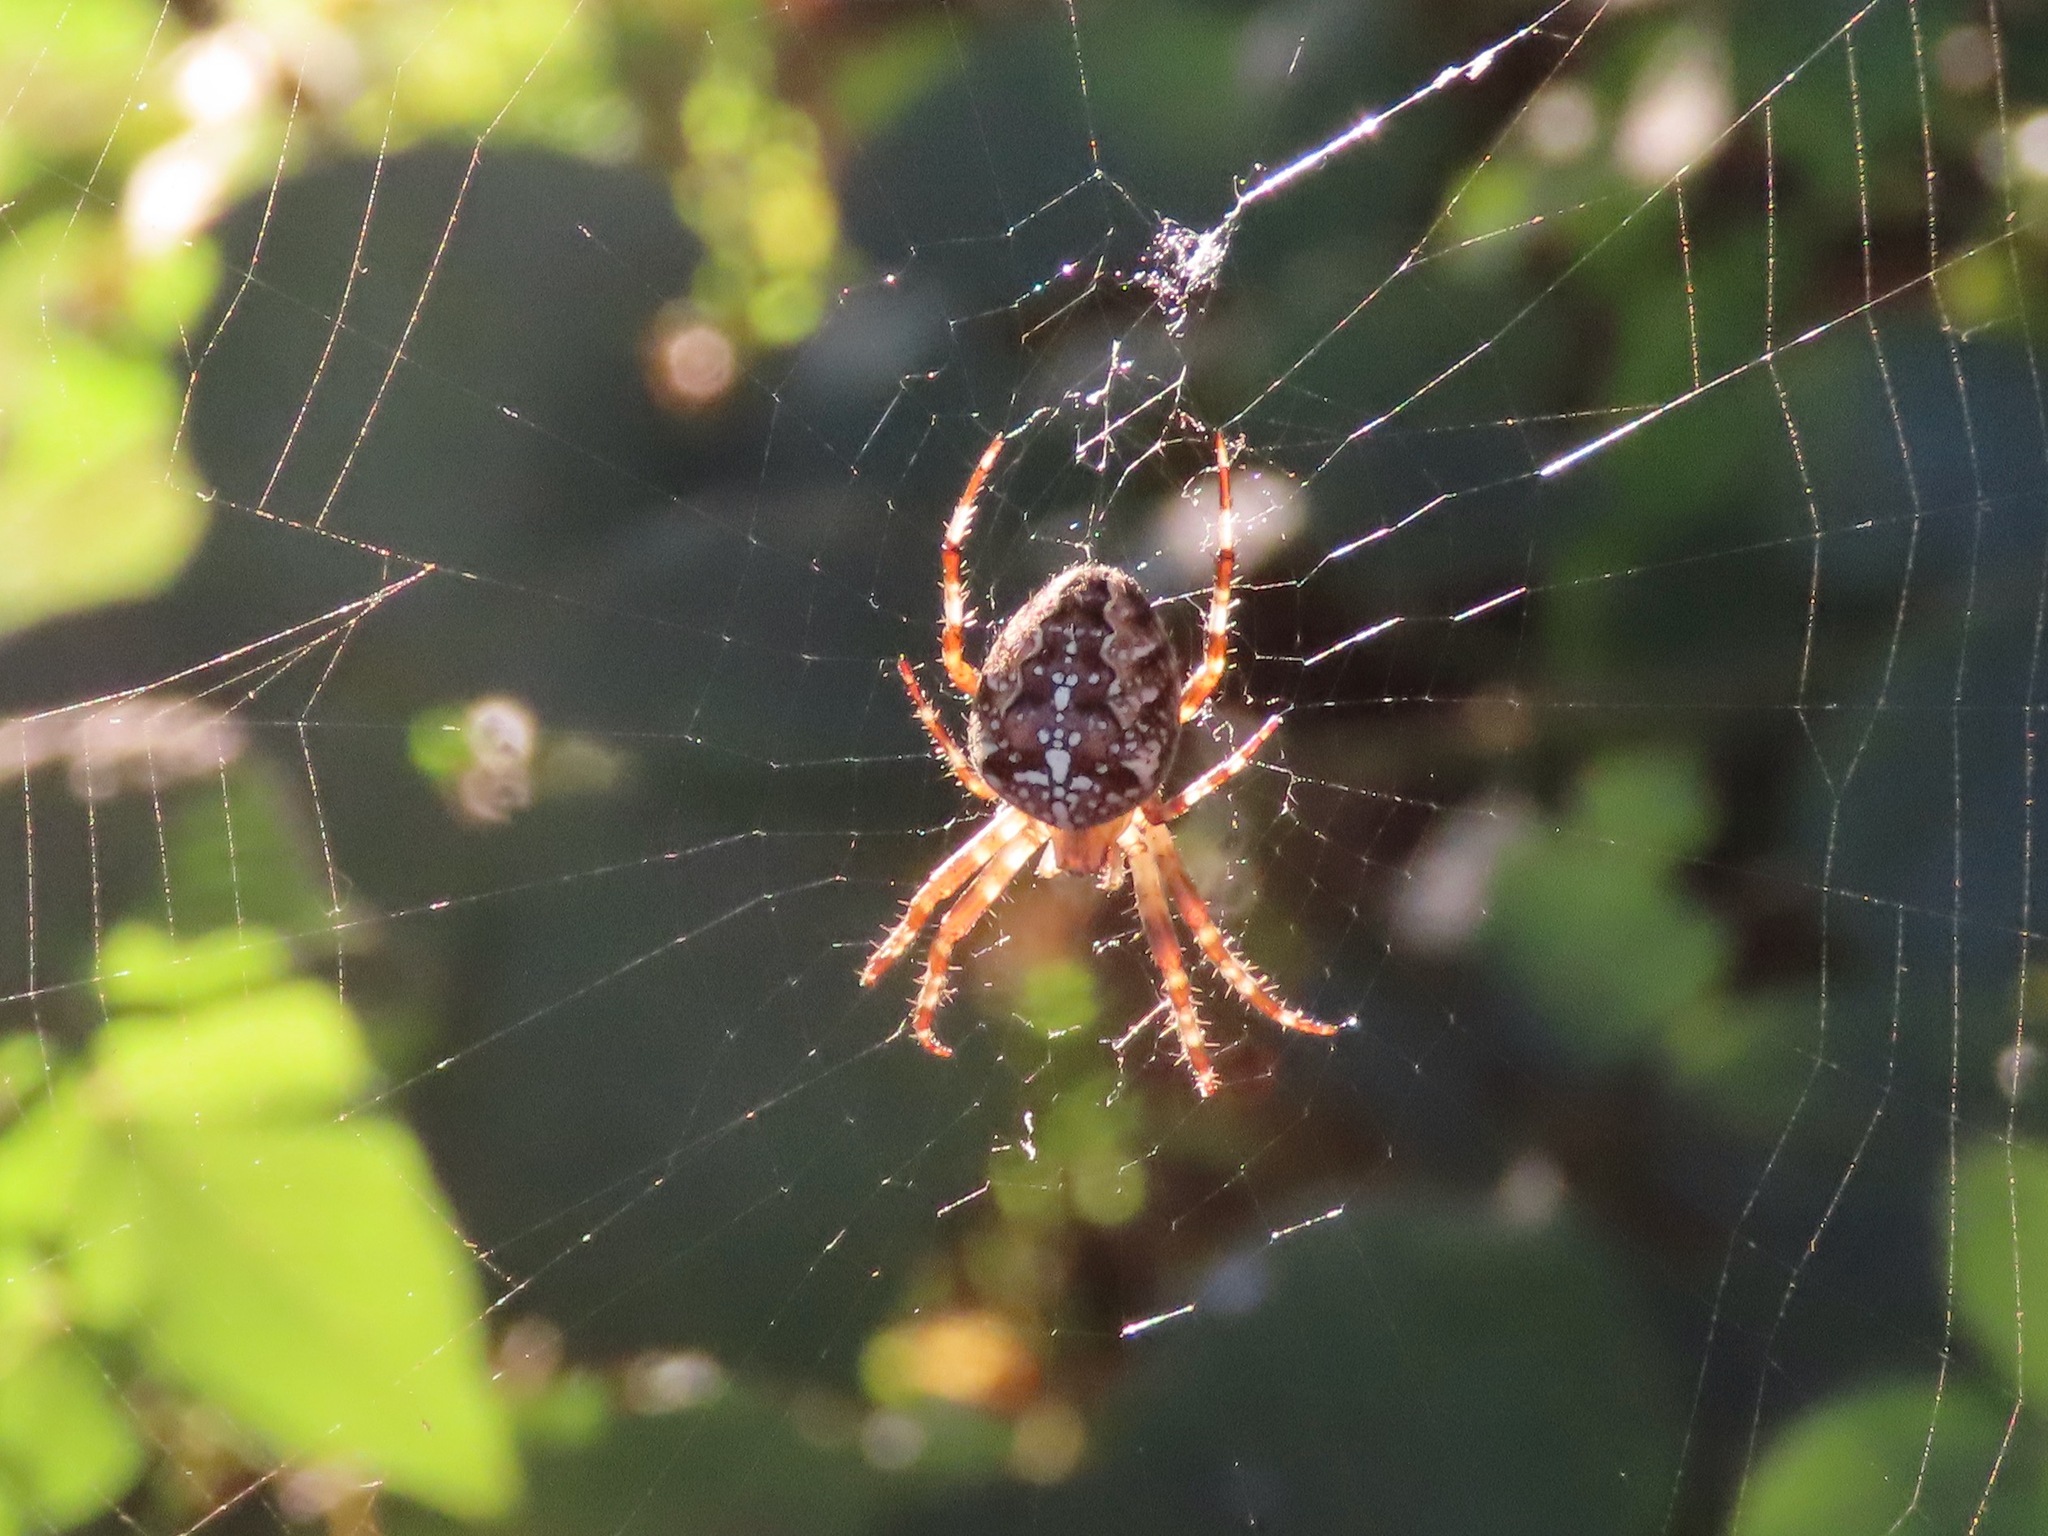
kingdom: Animalia
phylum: Arthropoda
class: Arachnida
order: Araneae
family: Araneidae
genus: Araneus
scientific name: Araneus diadematus
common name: Cross orbweaver
